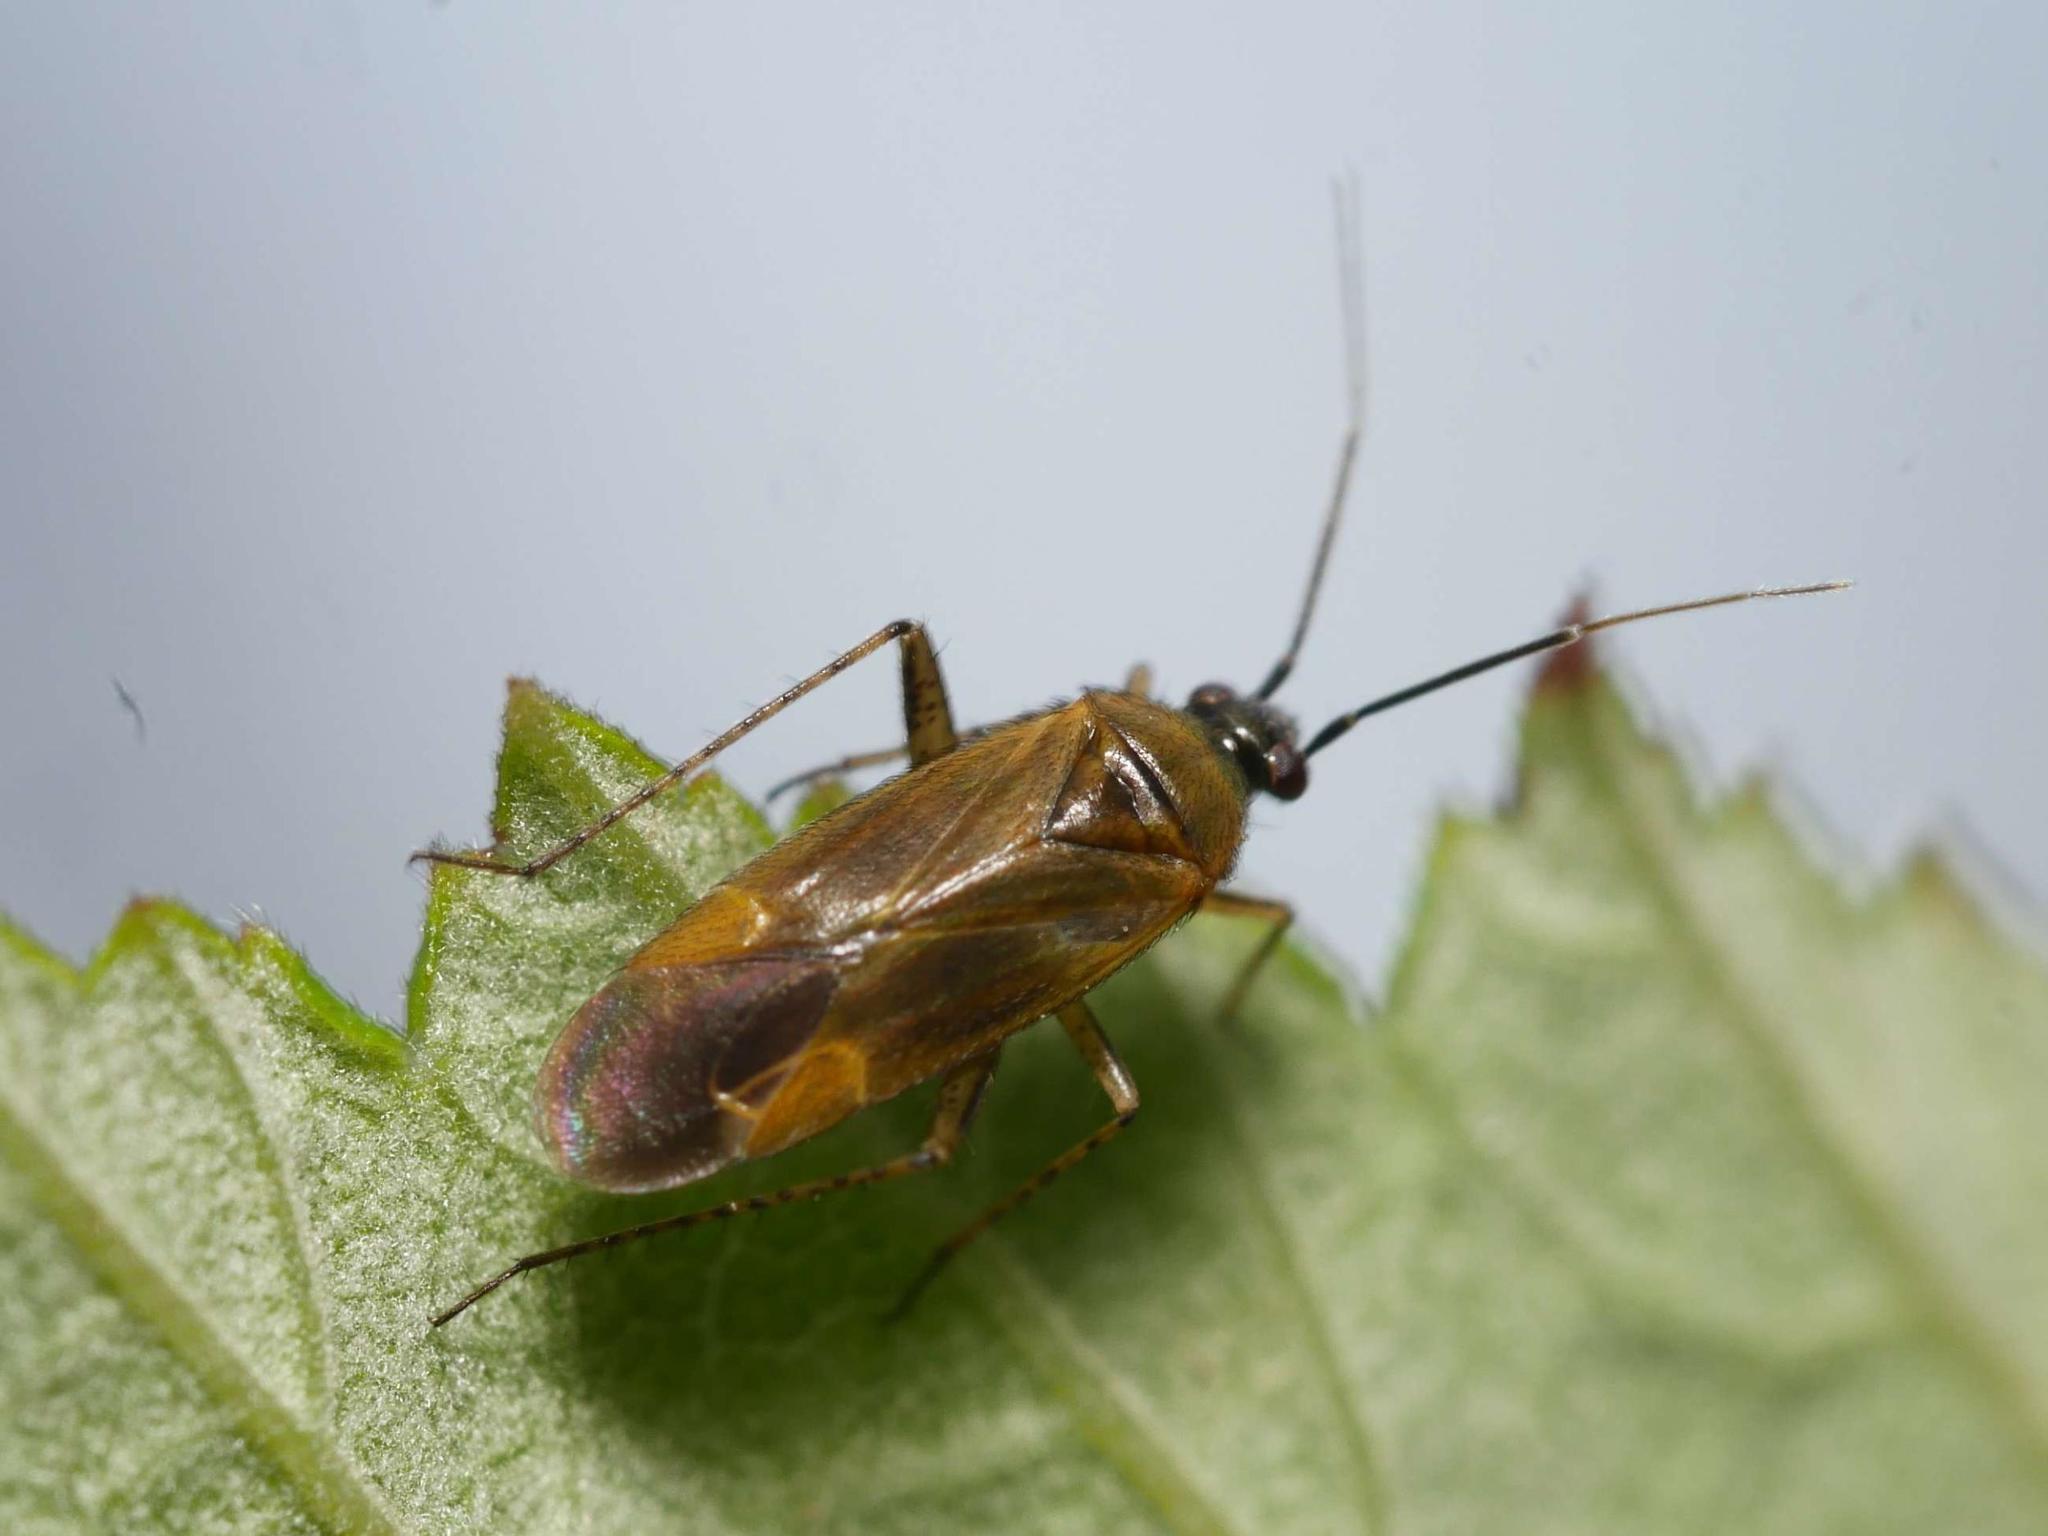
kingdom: Animalia
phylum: Arthropoda
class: Insecta
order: Hemiptera
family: Miridae
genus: Plagiognathus
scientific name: Plagiognathus arbustorum
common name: Plant bug
